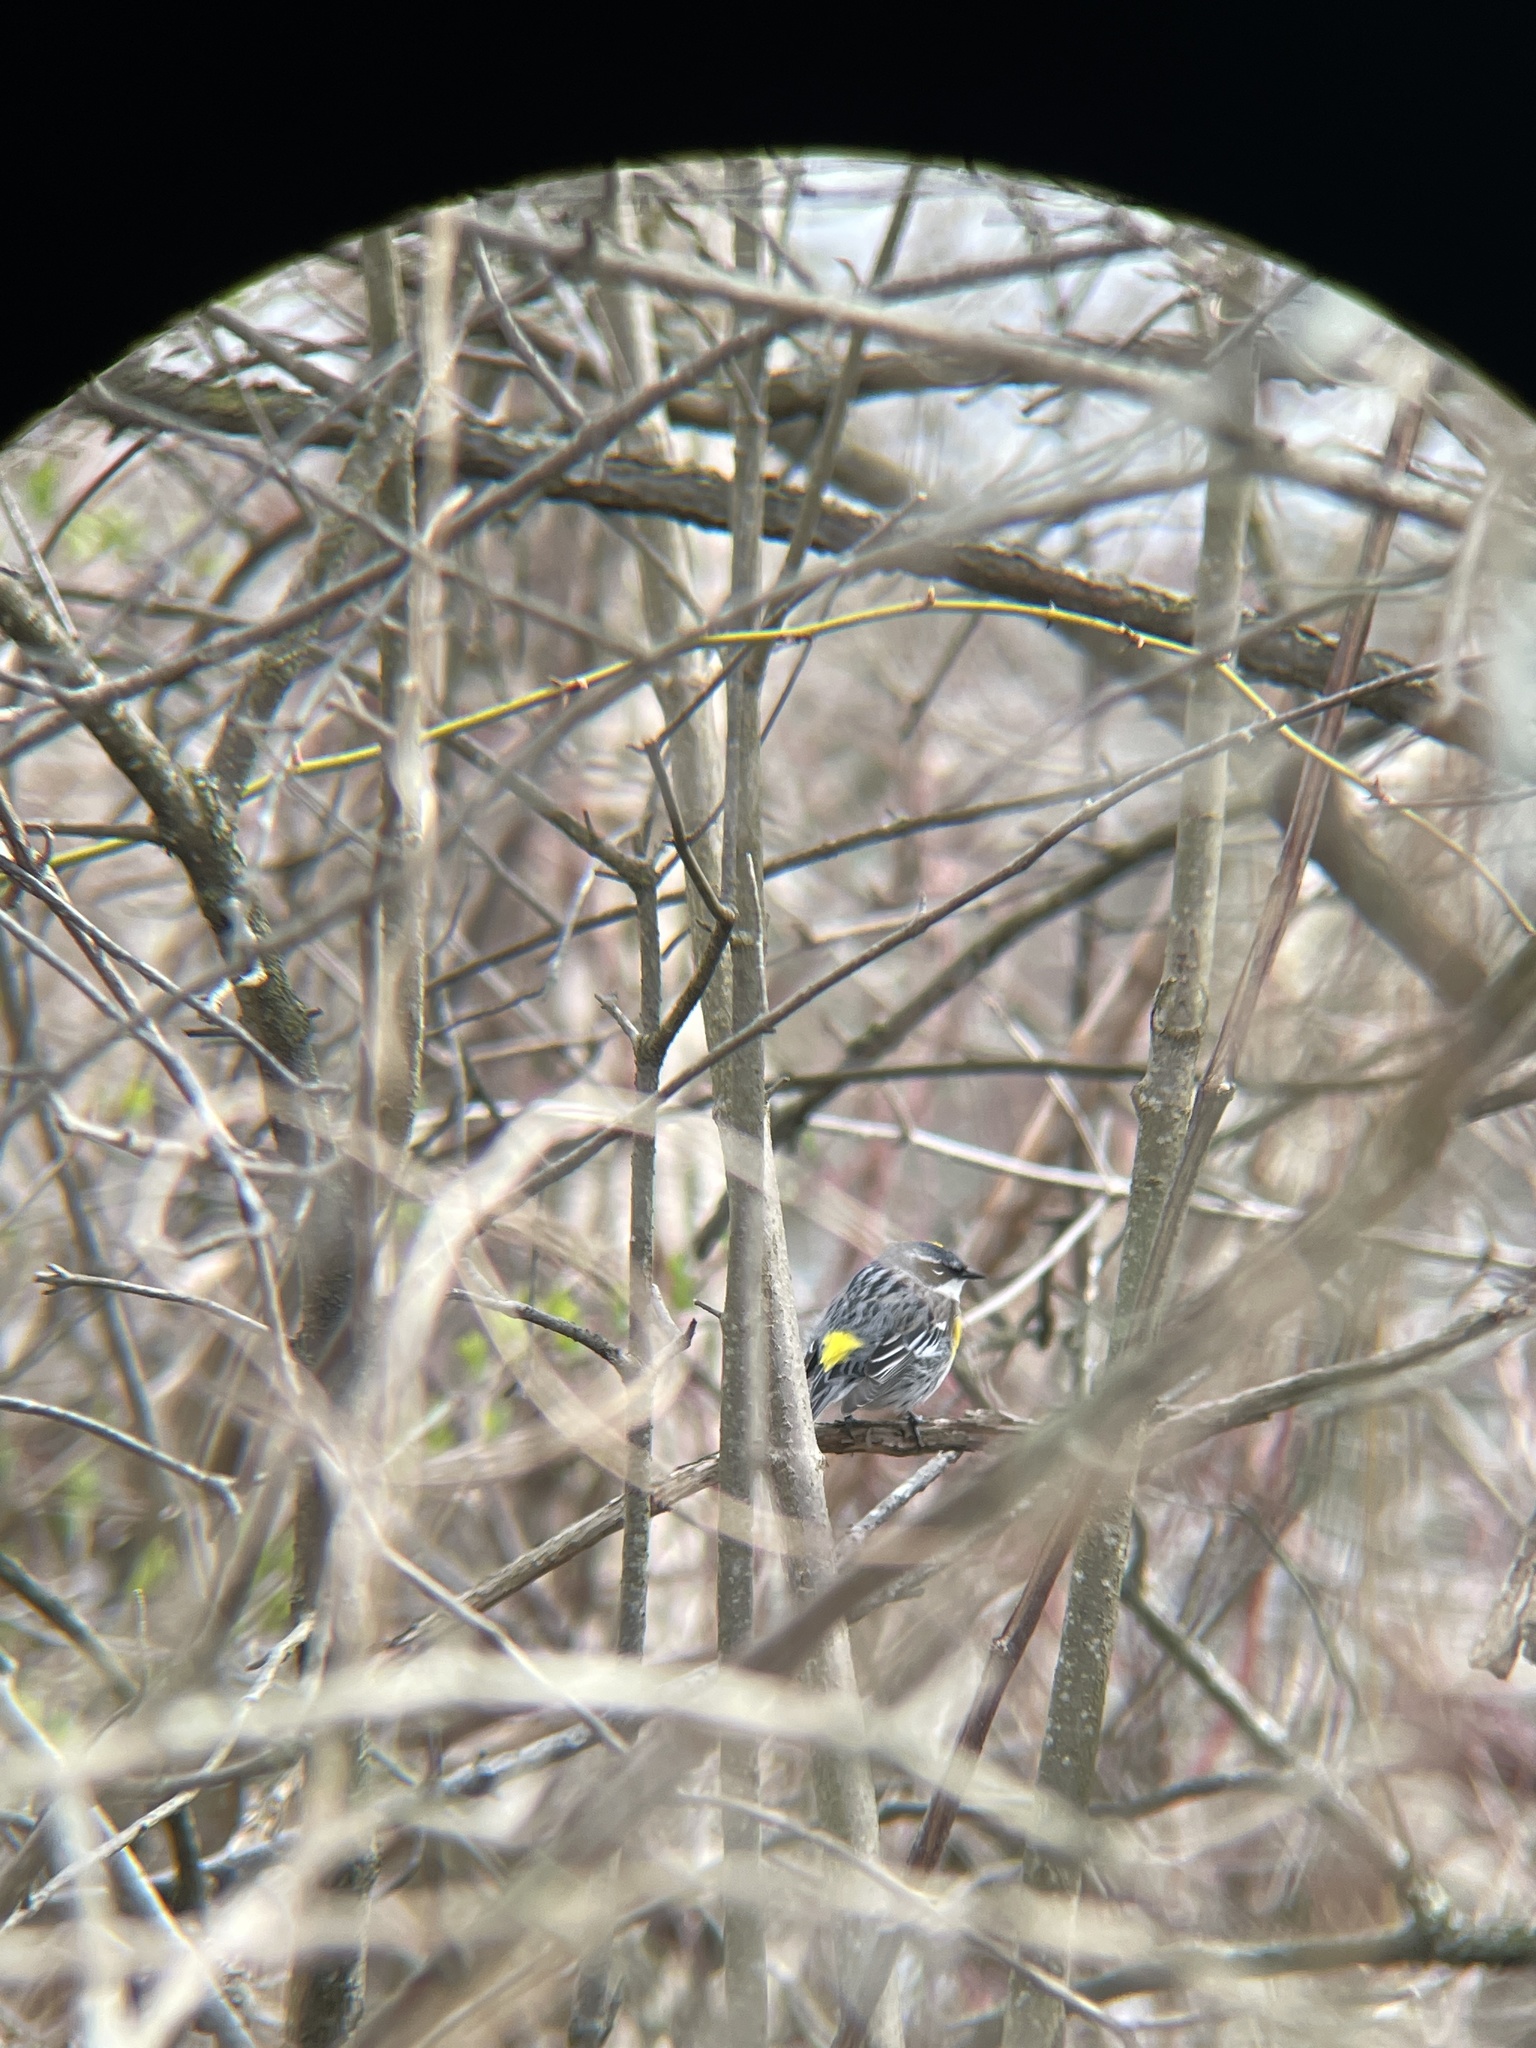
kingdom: Animalia
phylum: Chordata
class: Aves
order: Passeriformes
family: Parulidae
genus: Setophaga
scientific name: Setophaga coronata
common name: Myrtle warbler
